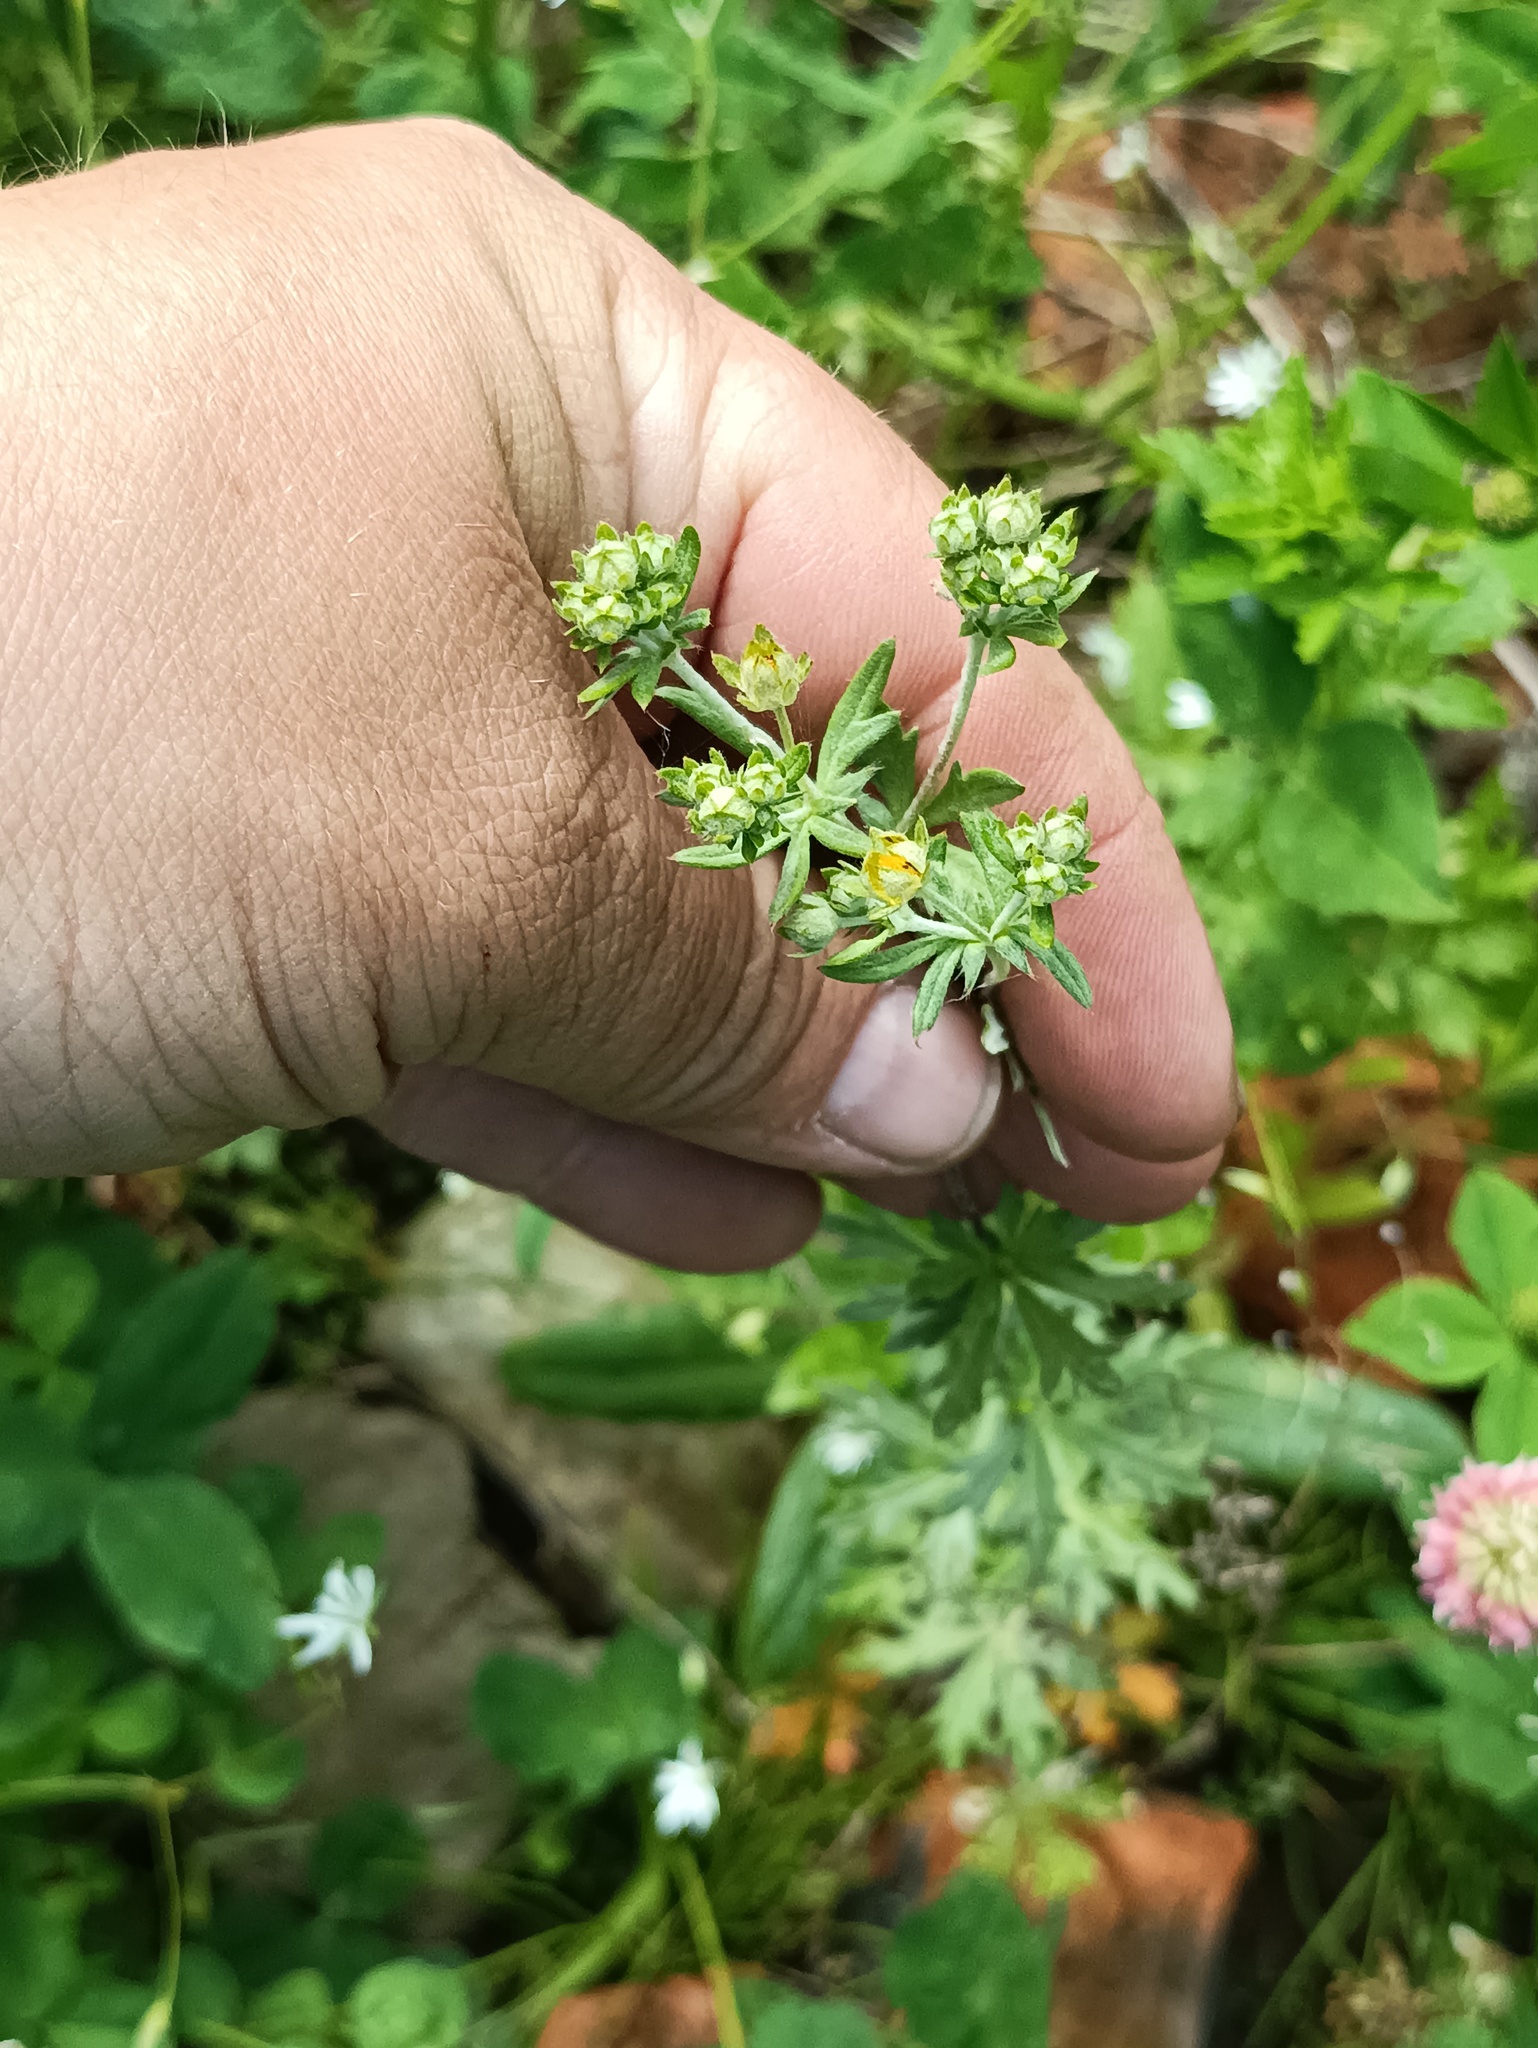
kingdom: Plantae
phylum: Tracheophyta
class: Magnoliopsida
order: Rosales
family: Rosaceae
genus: Potentilla
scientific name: Potentilla argentea
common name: Hoary cinquefoil
